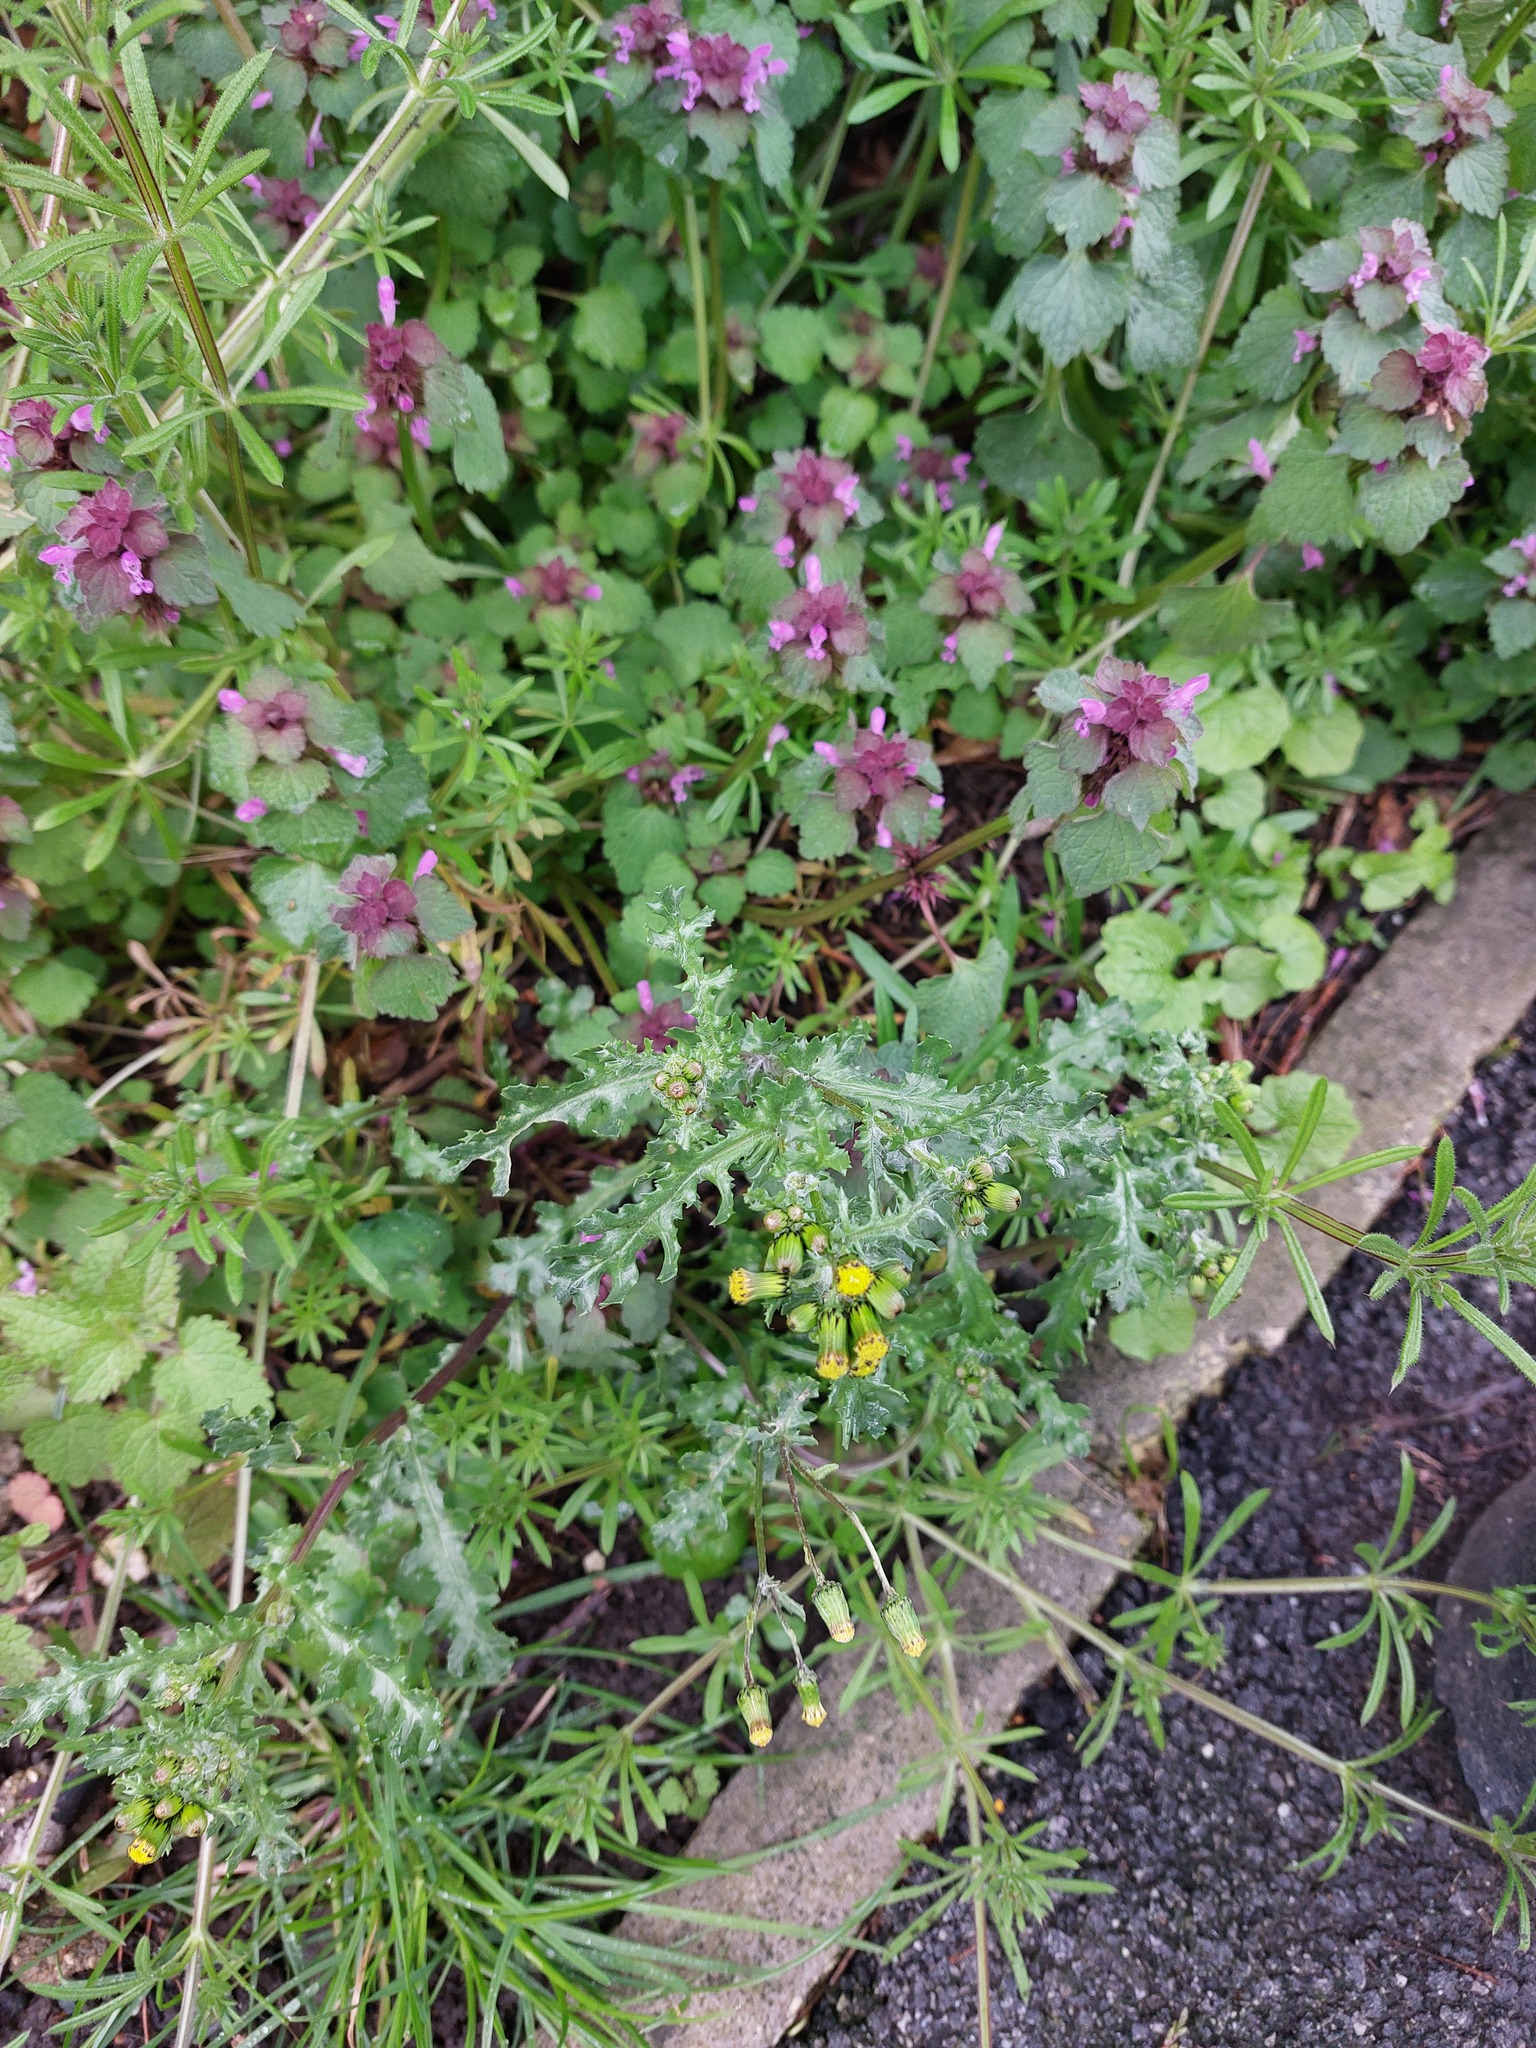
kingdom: Plantae
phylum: Tracheophyta
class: Magnoliopsida
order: Lamiales
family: Lamiaceae
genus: Lamium
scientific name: Lamium purpureum
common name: Red dead-nettle
